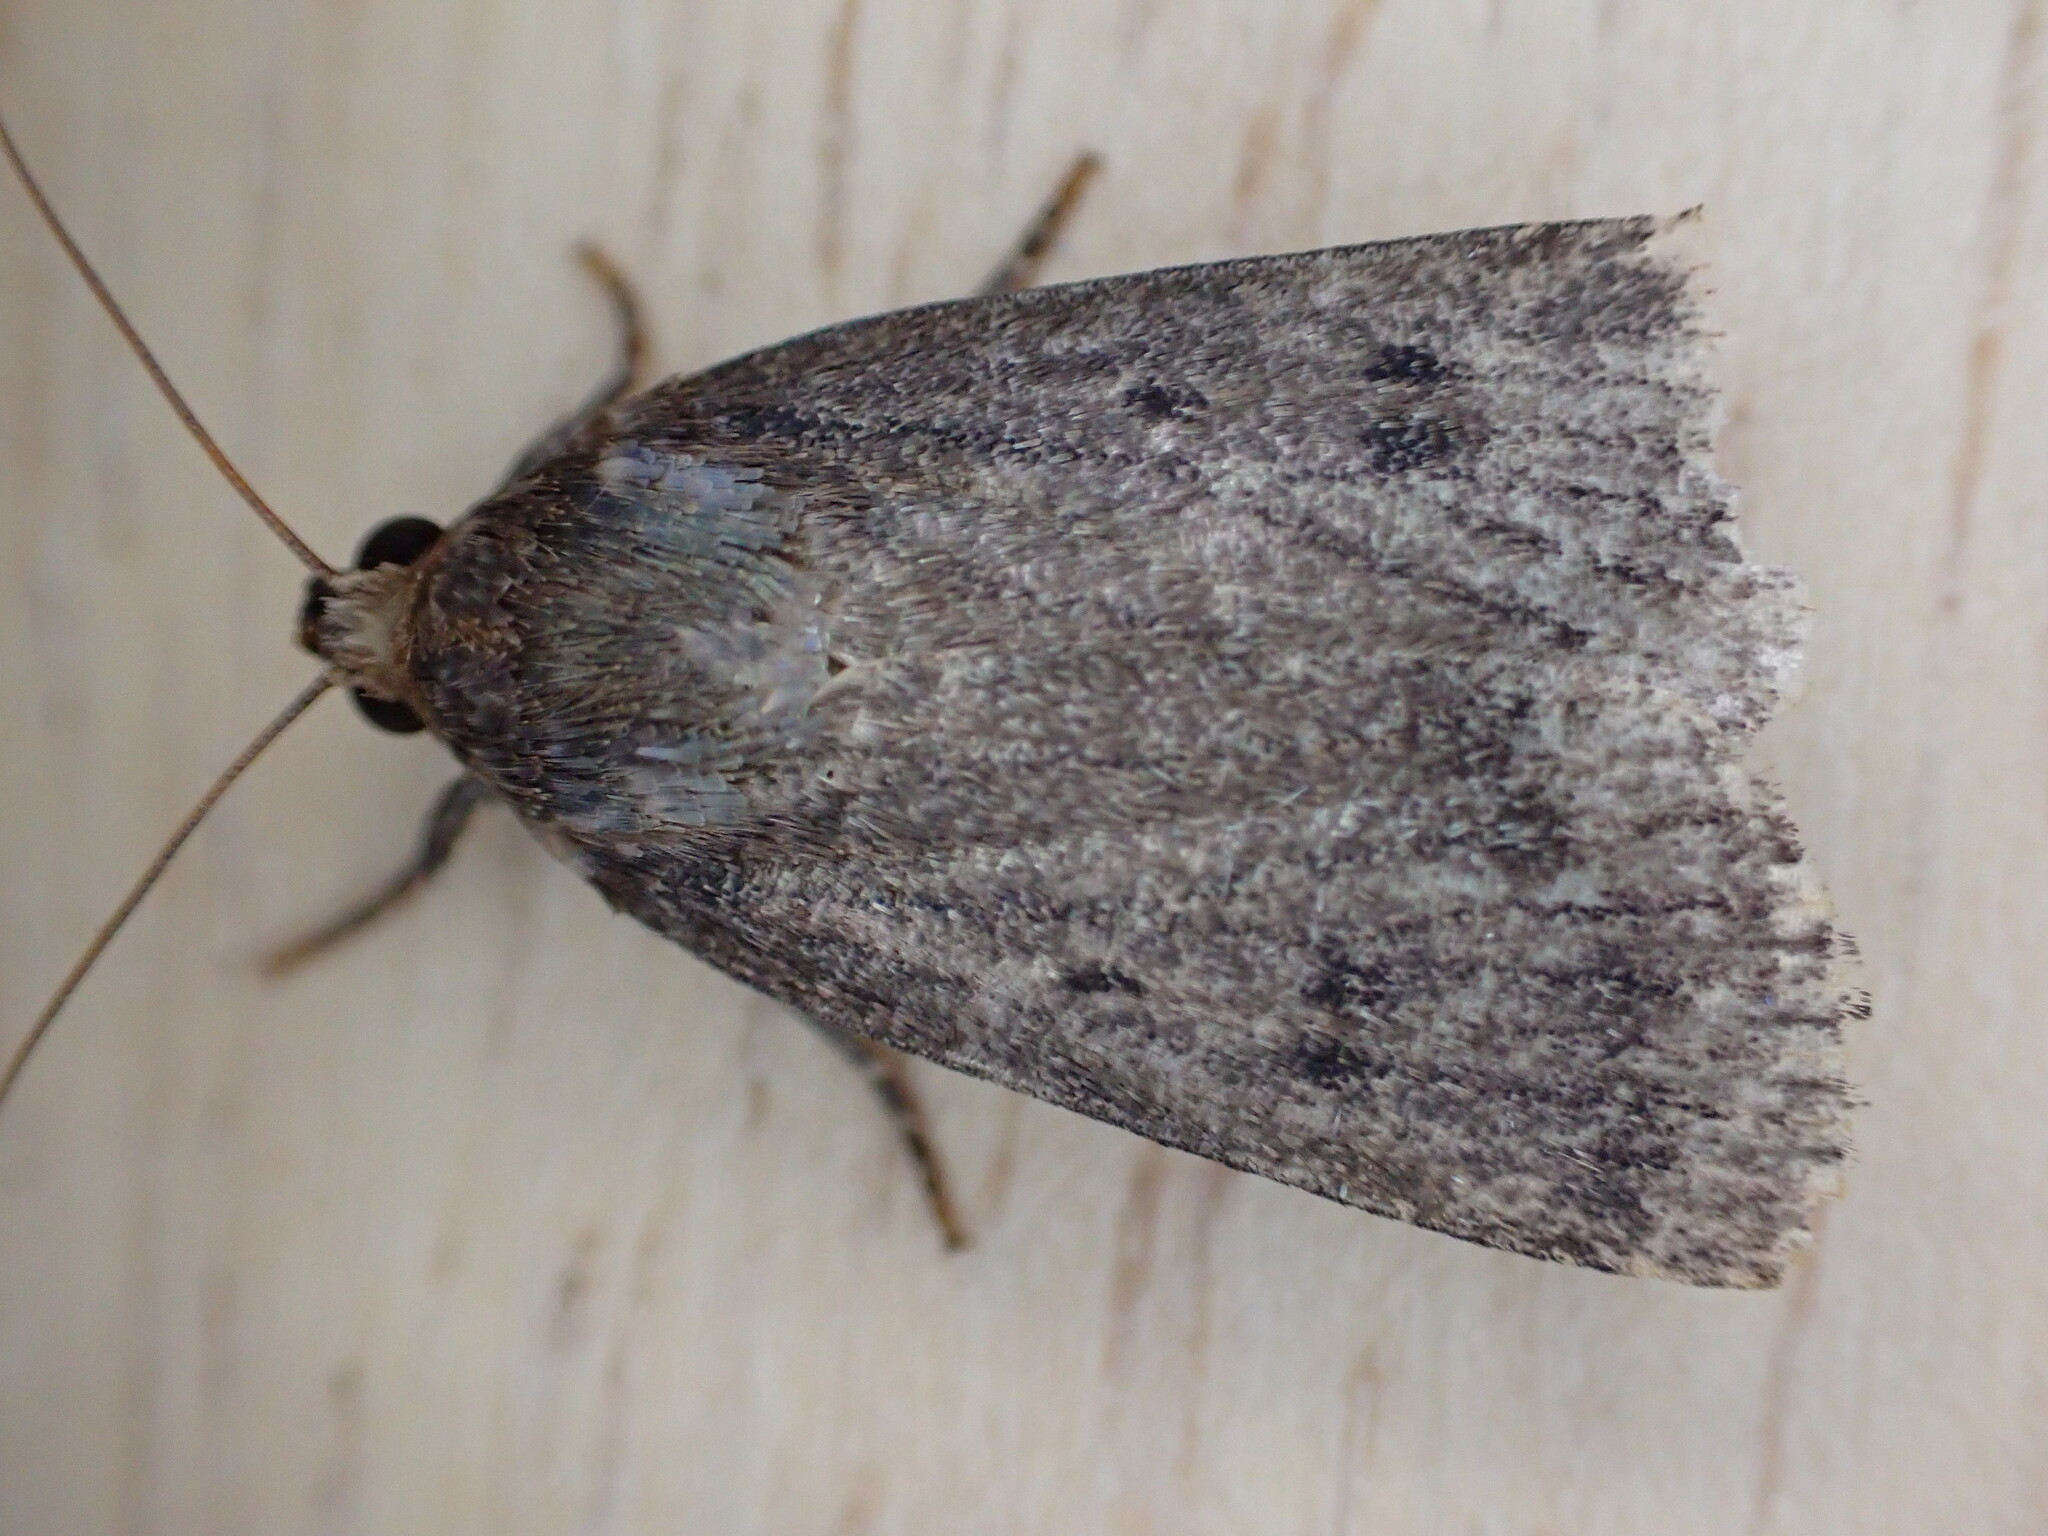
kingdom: Animalia
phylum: Arthropoda
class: Insecta
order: Lepidoptera
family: Noctuidae
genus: Amphipyra
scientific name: Amphipyra tragopoginis
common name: Mouse moth
